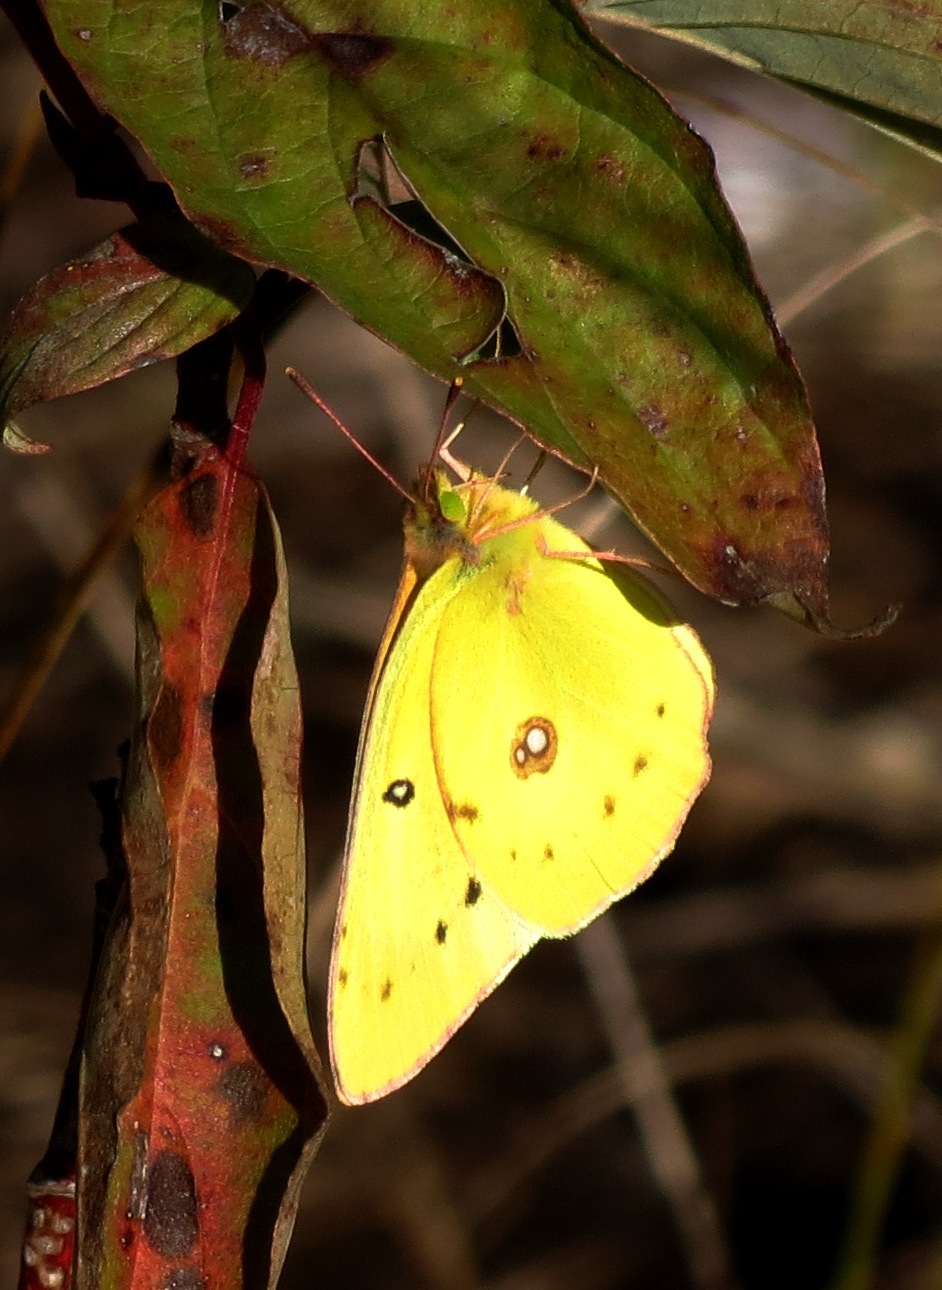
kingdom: Animalia
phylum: Arthropoda
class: Insecta
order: Lepidoptera
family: Pieridae
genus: Colias
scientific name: Colias philodice
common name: Clouded sulphur
